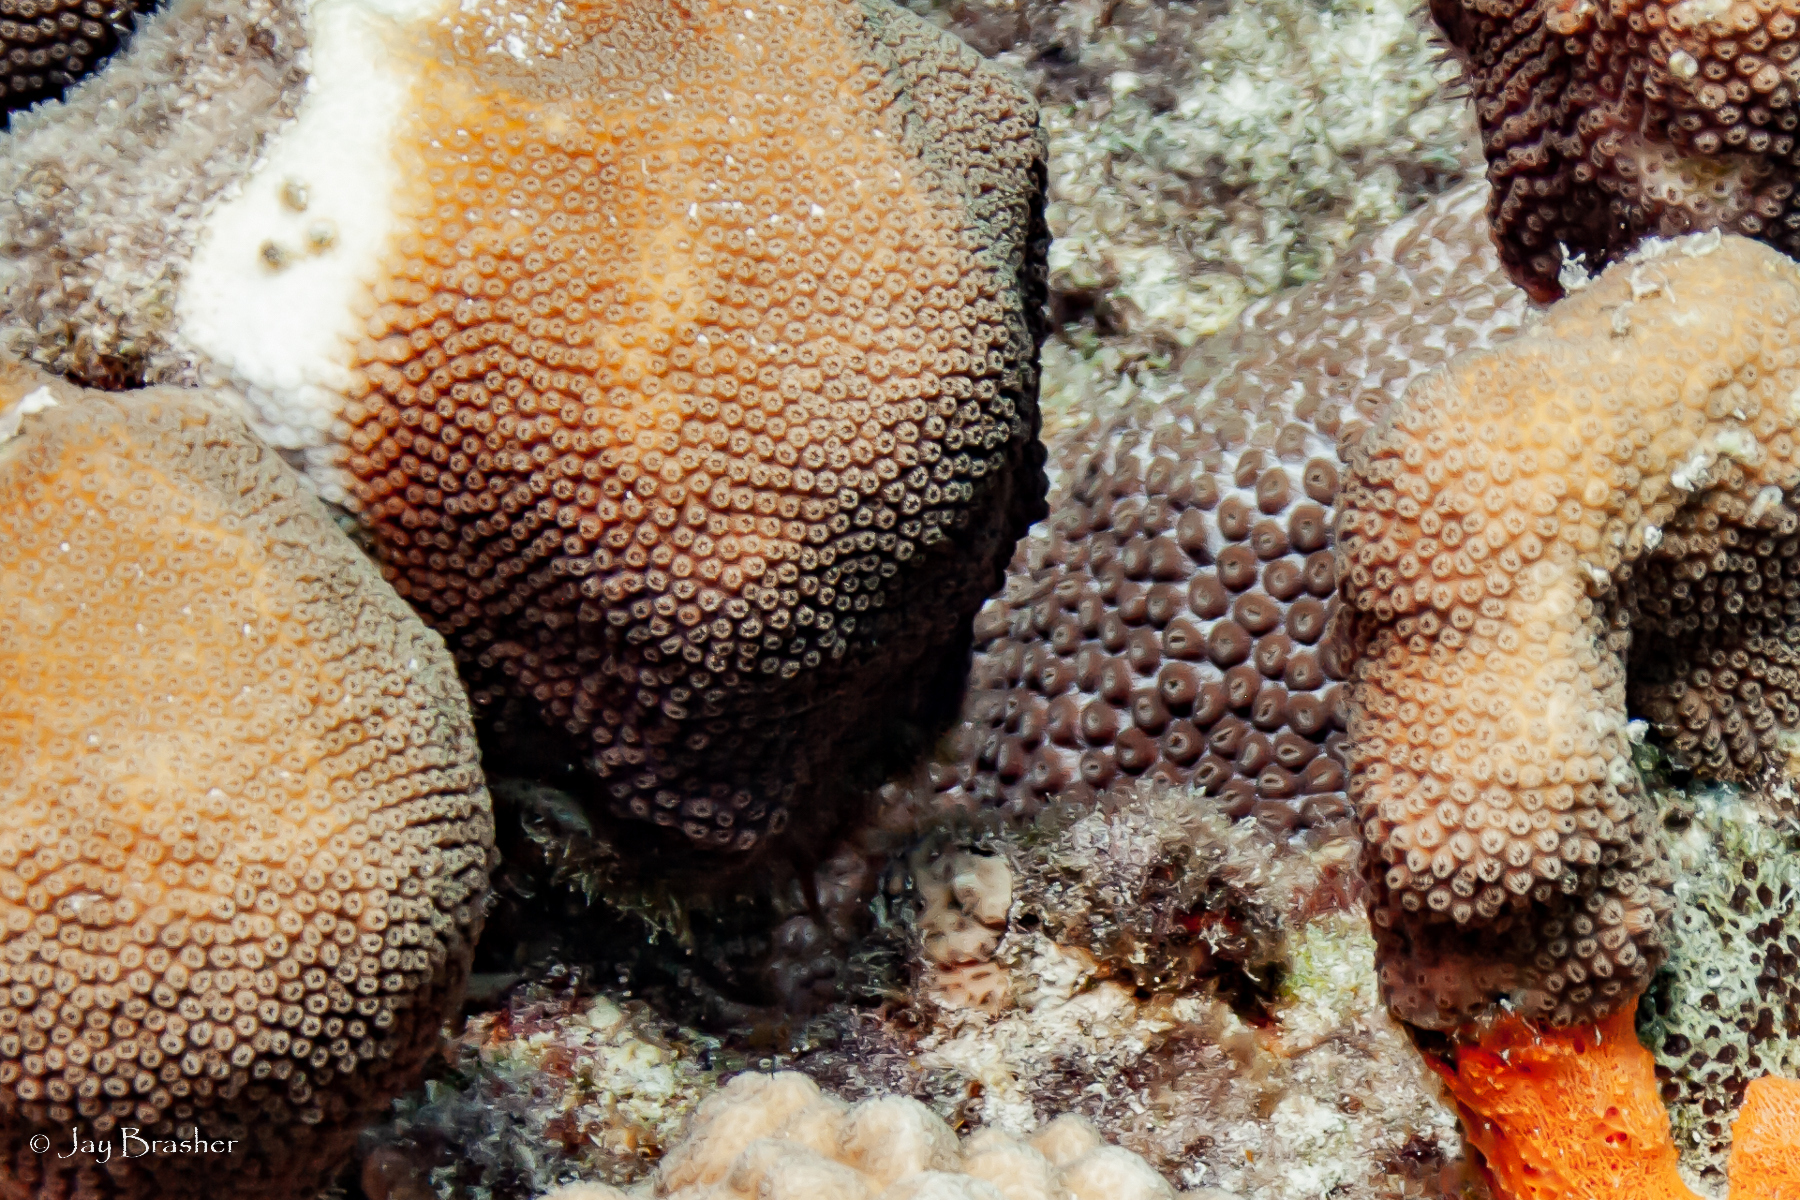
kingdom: Animalia
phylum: Cnidaria
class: Anthozoa
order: Scleractinia
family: Montastraeidae
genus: Montastraea
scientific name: Montastraea cavernosa
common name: Great star coral
